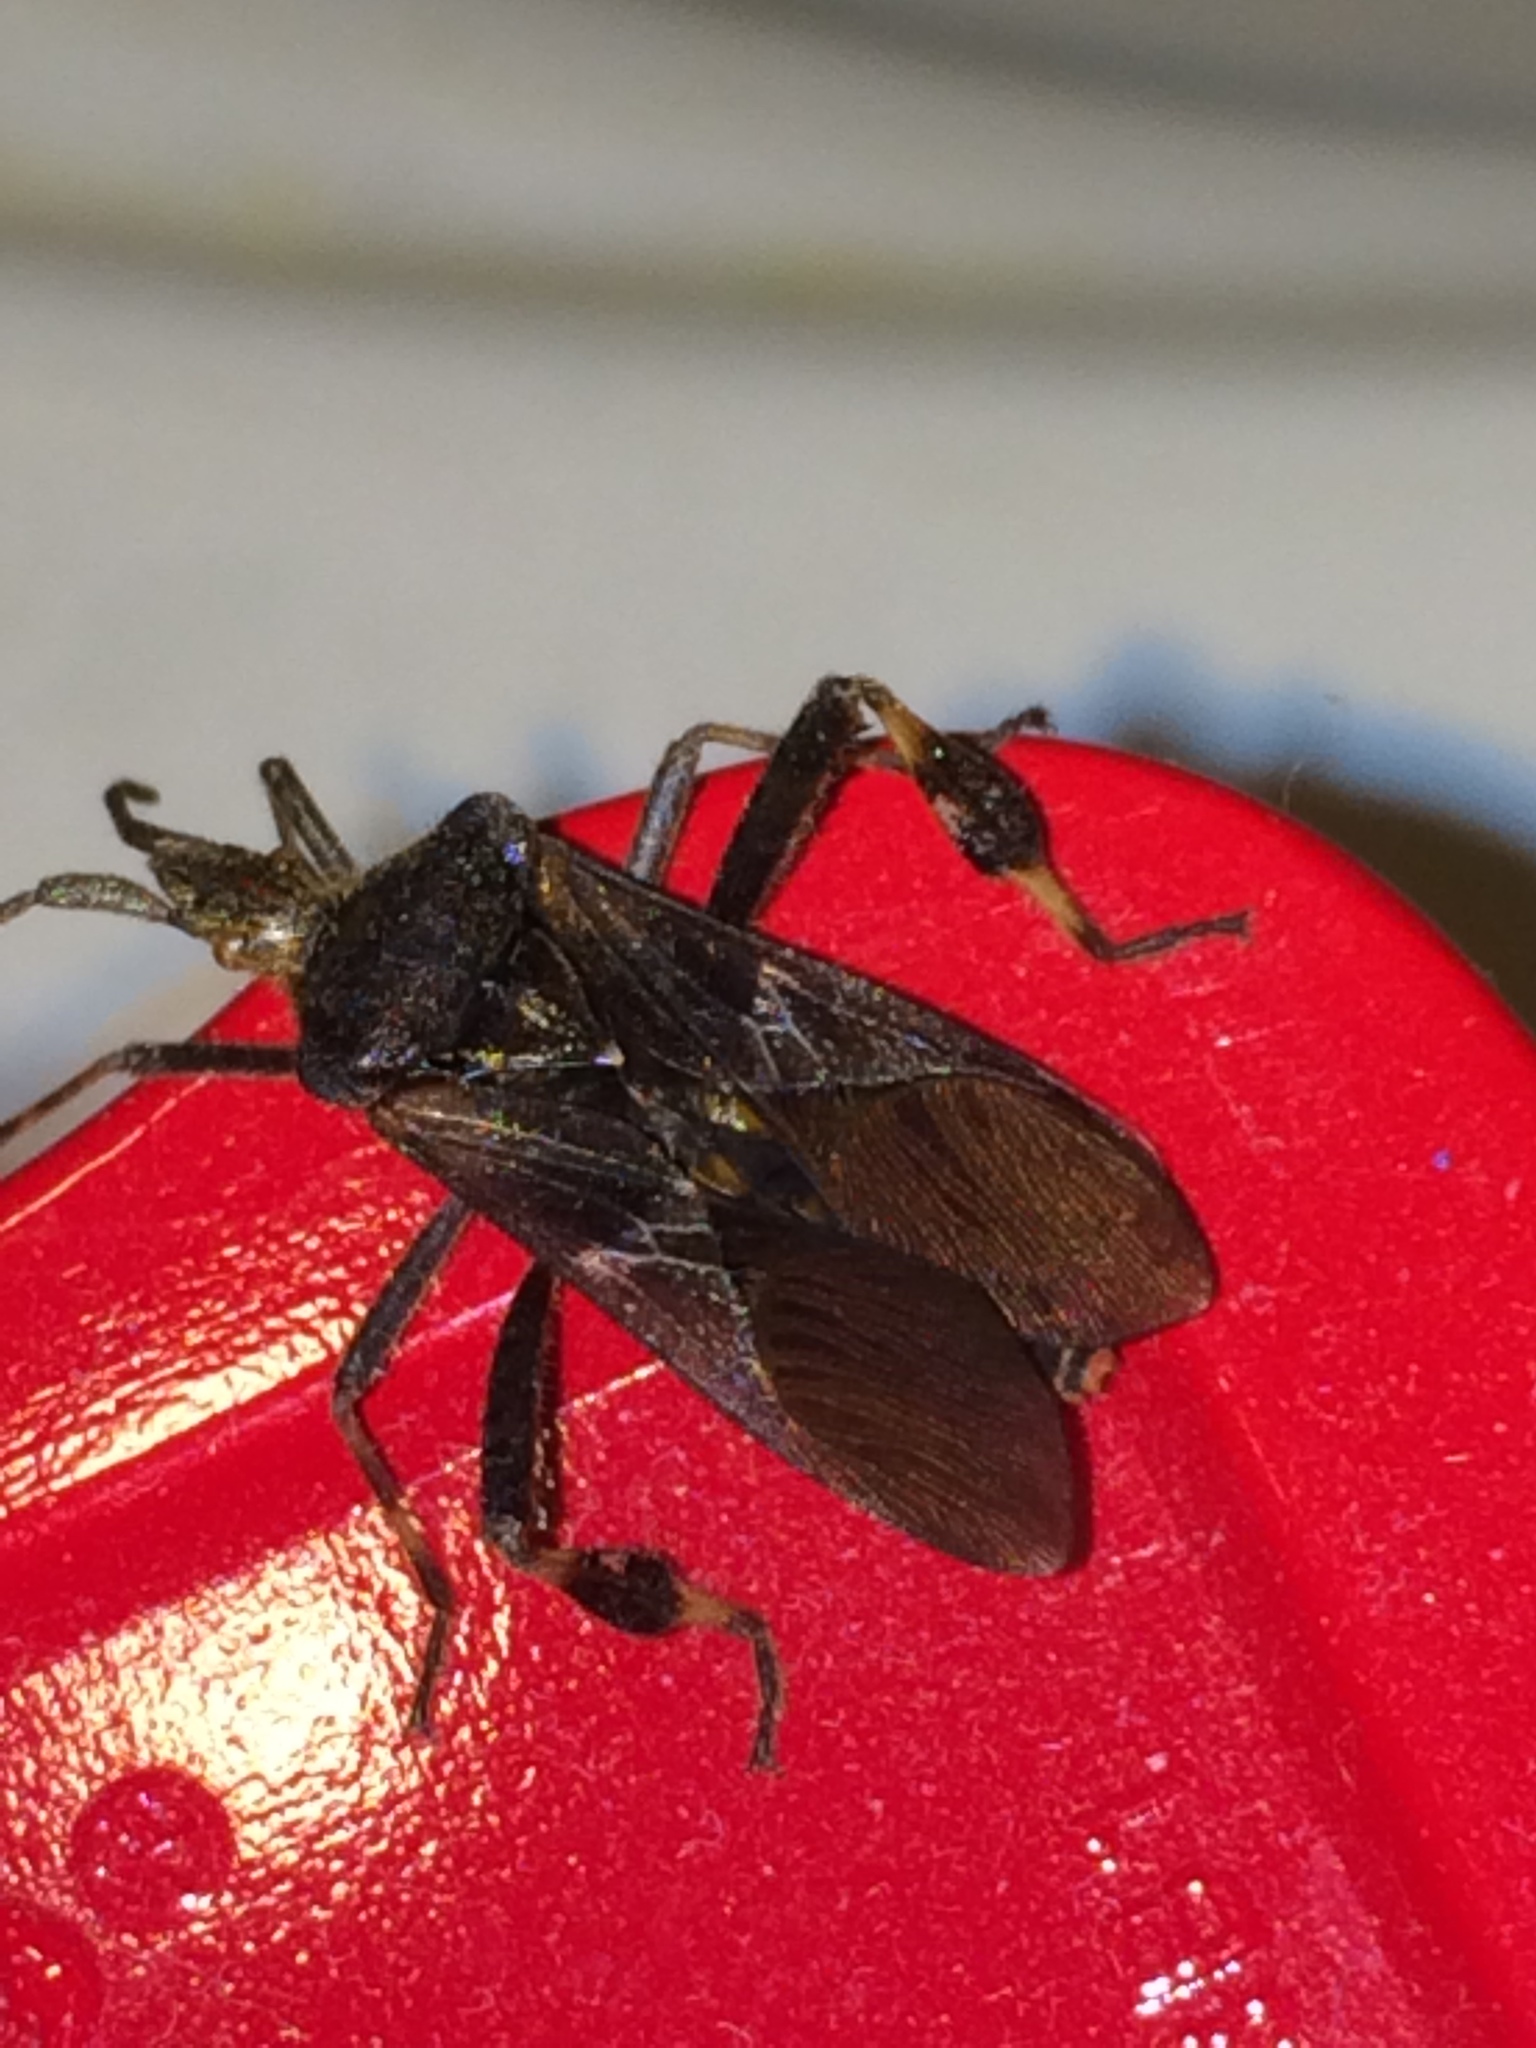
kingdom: Animalia
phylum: Arthropoda
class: Insecta
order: Hemiptera
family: Coreidae
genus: Leptoglossus
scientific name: Leptoglossus occidentalis
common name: Western conifer-seed bug
